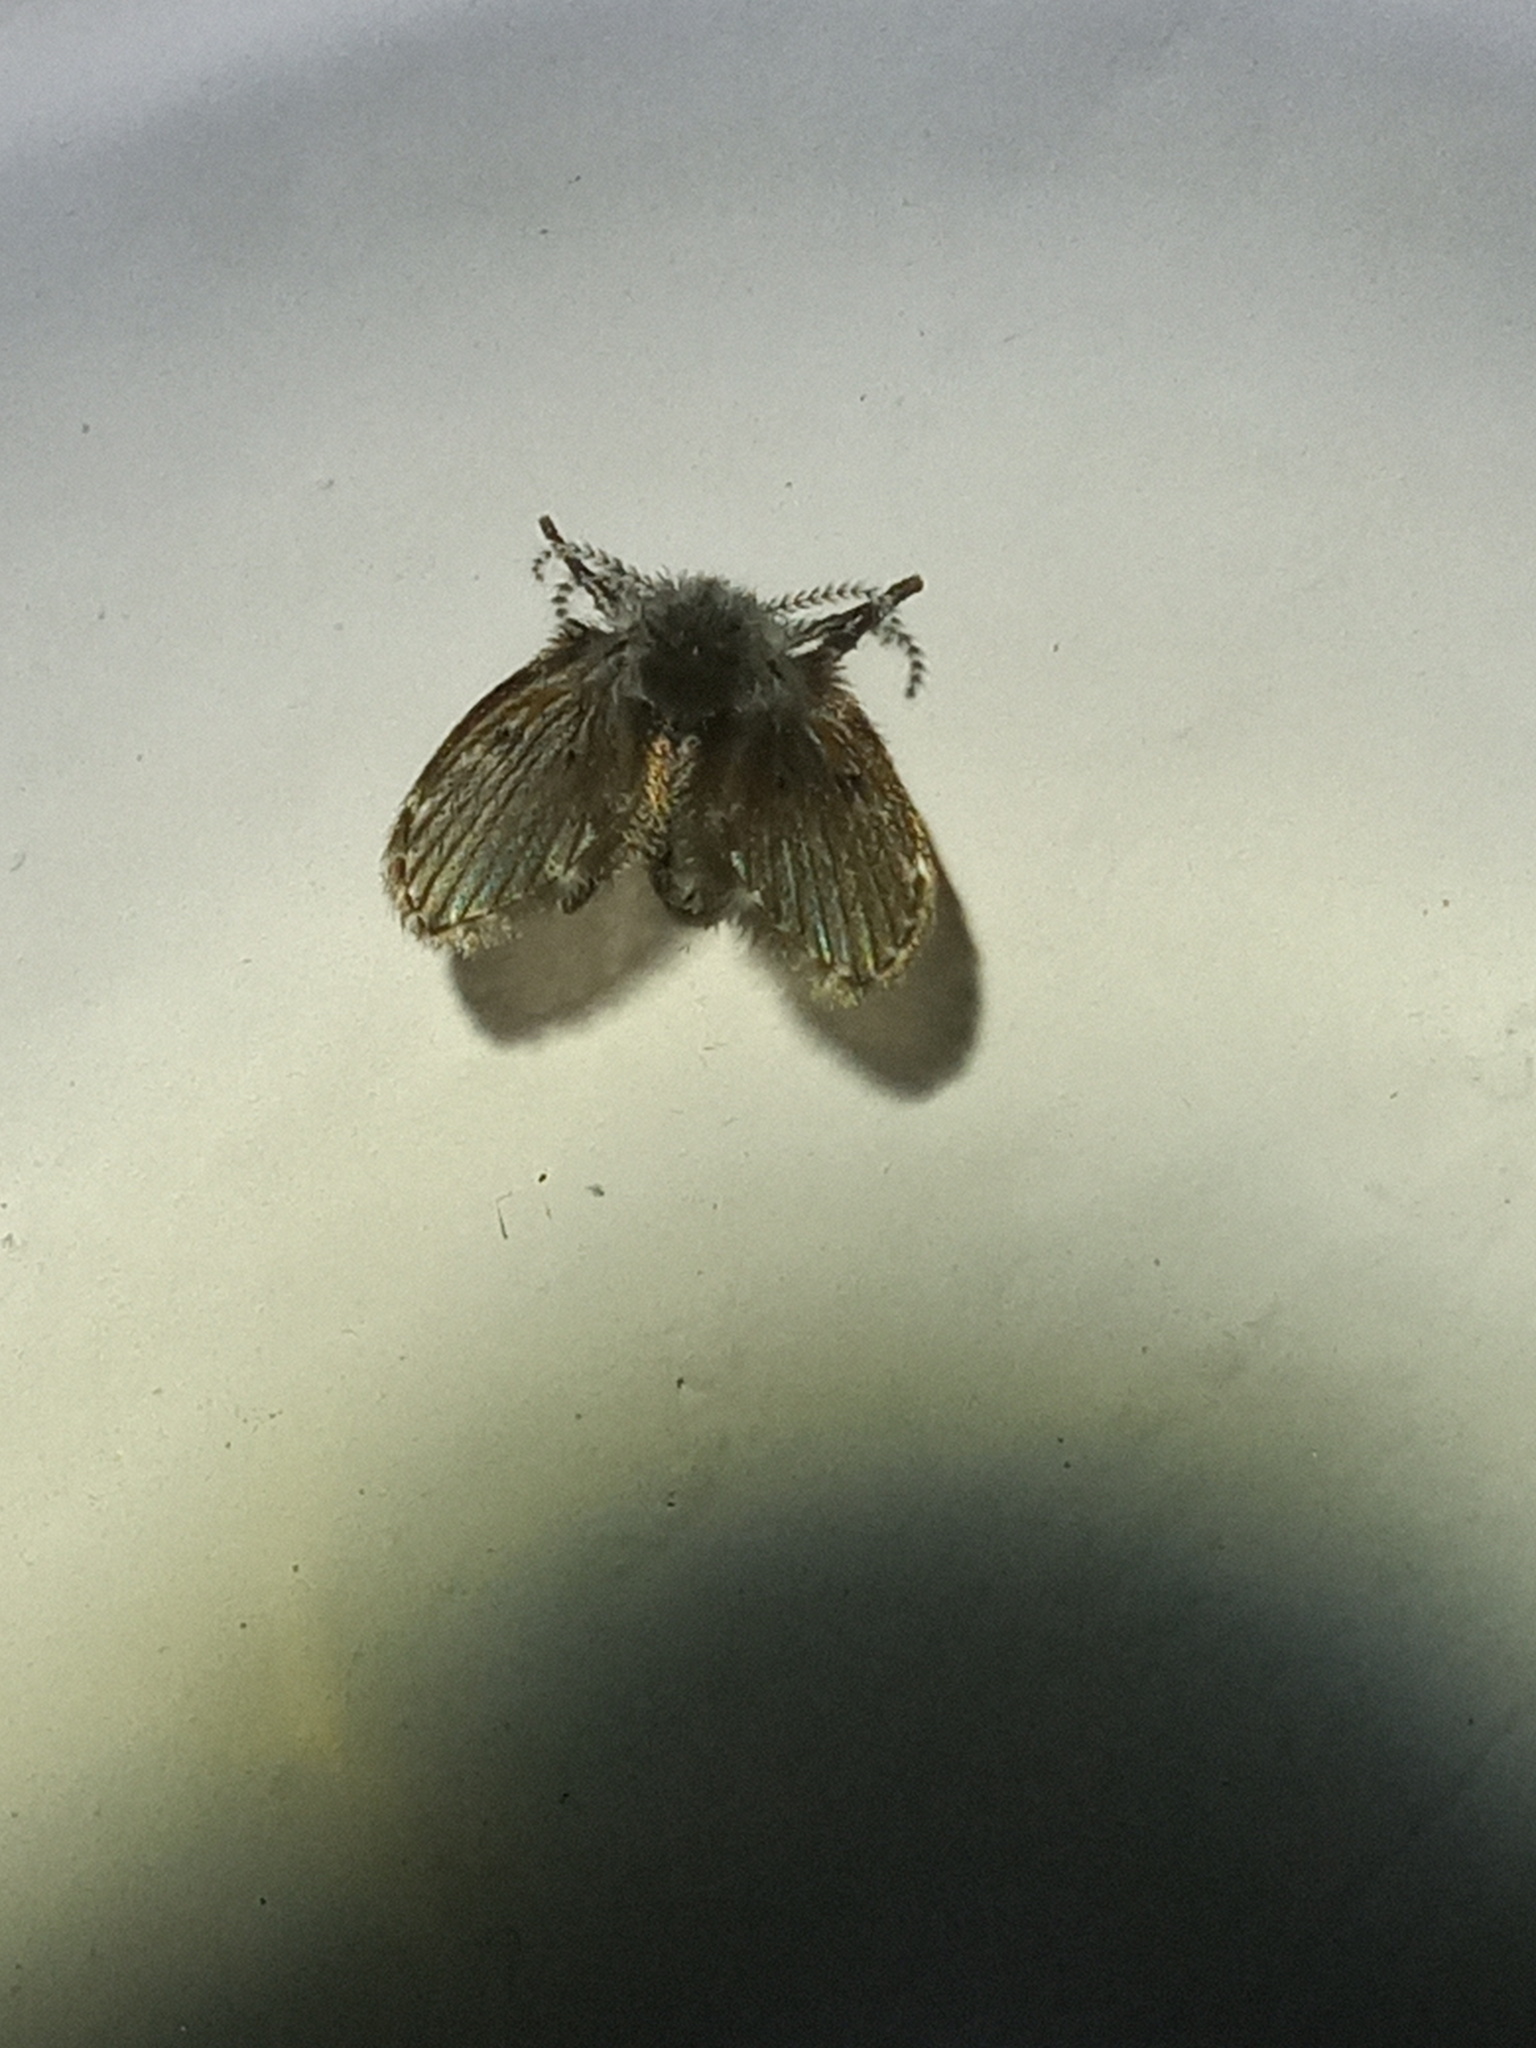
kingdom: Animalia
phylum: Arthropoda
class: Insecta
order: Diptera
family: Psychodidae
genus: Clogmia
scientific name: Clogmia albipunctatus
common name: White-spotted moth fly
